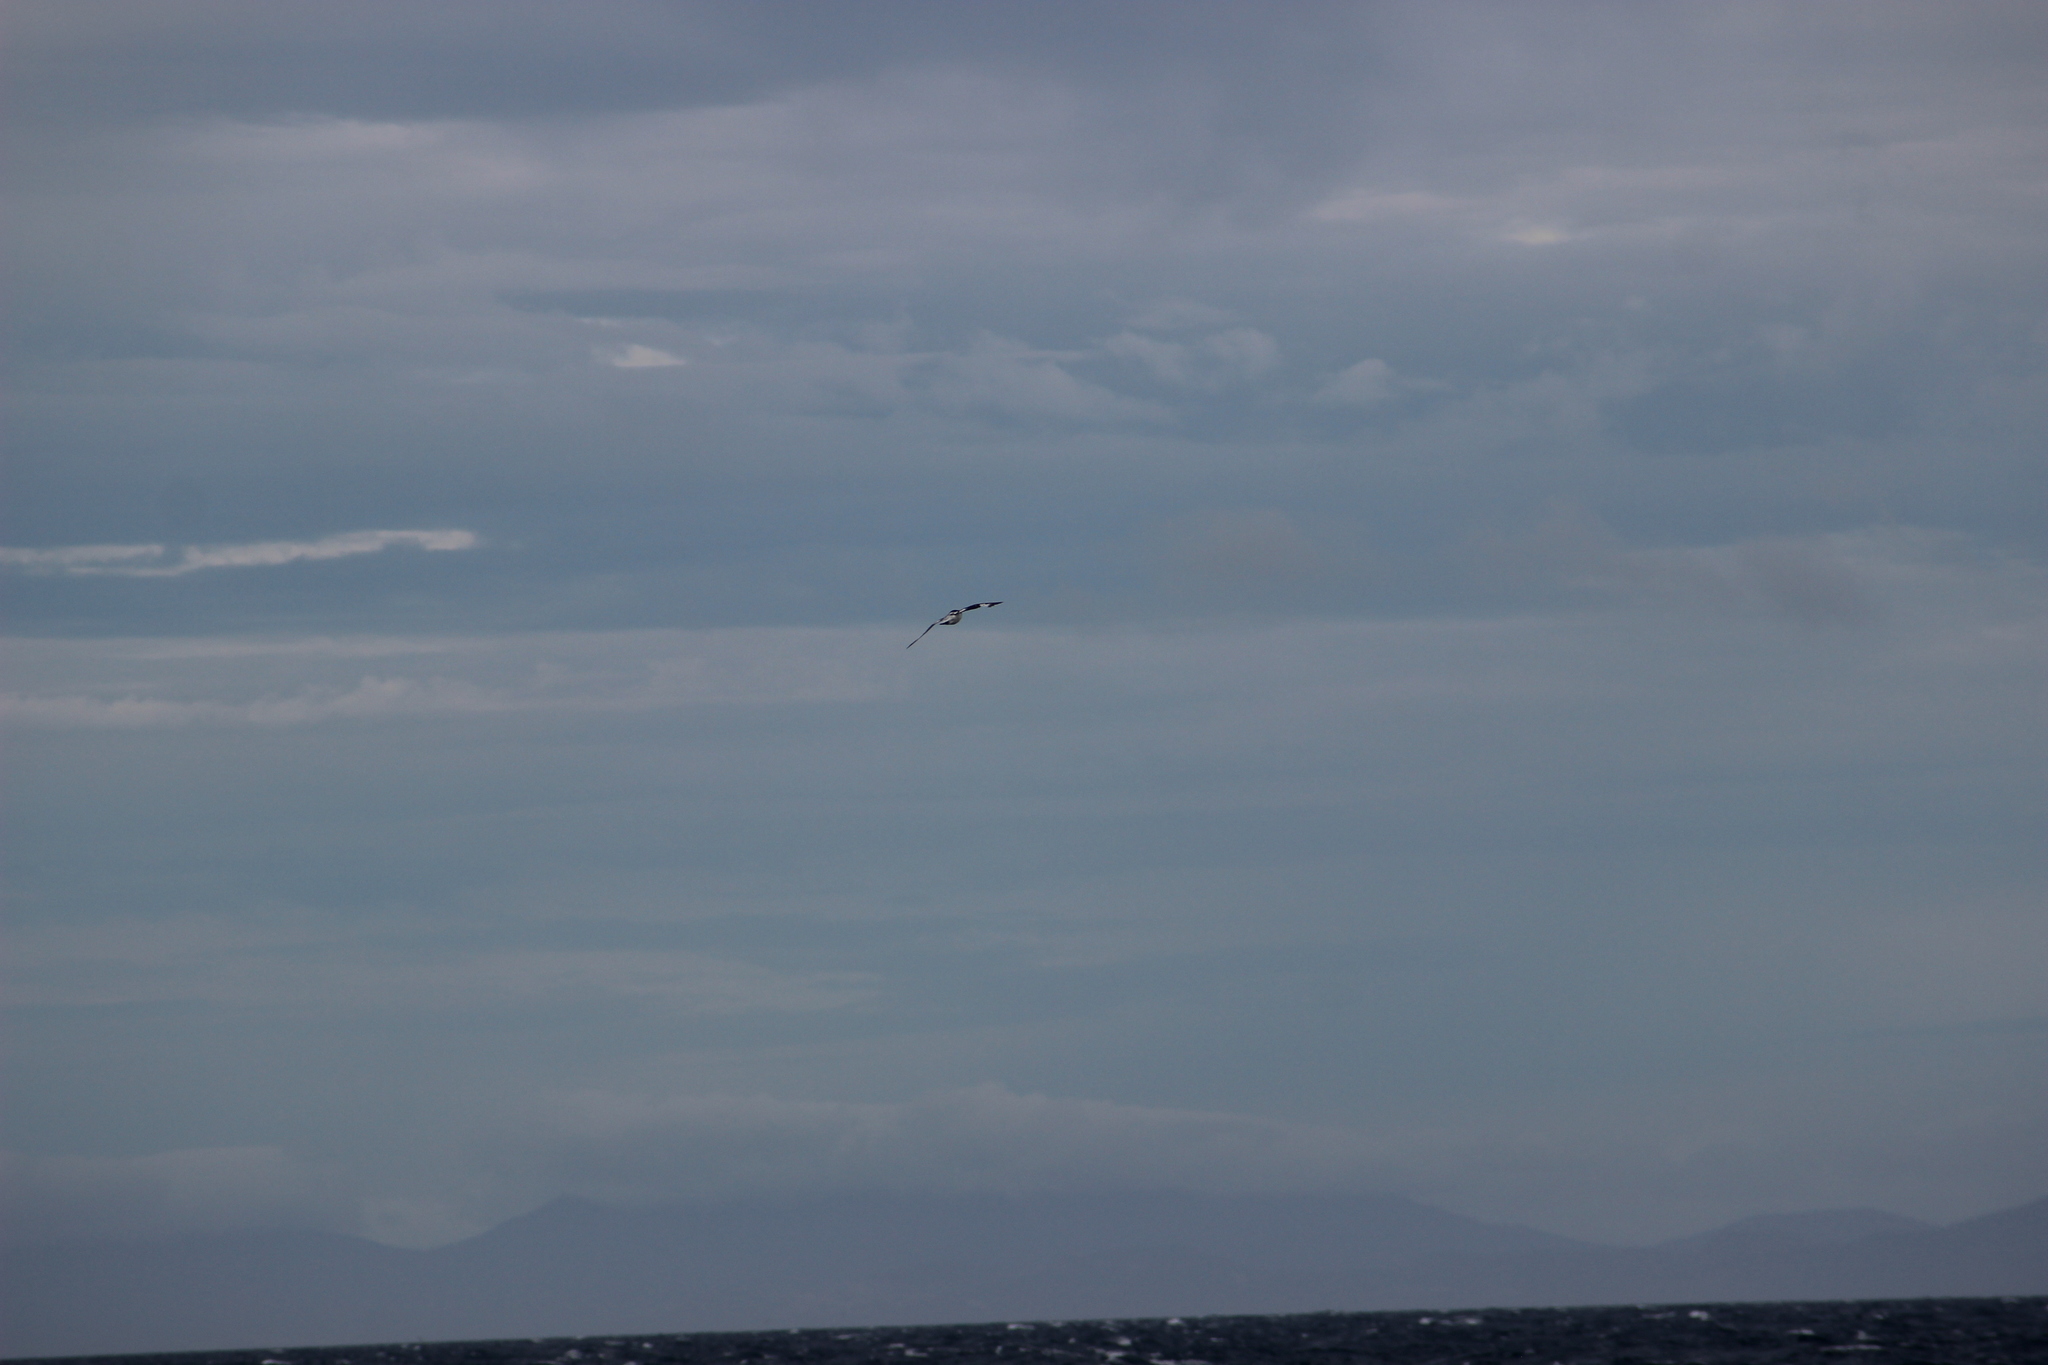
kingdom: Animalia
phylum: Chordata
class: Aves
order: Procellariiformes
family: Procellariidae
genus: Daption
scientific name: Daption capense
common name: Cape petrel
